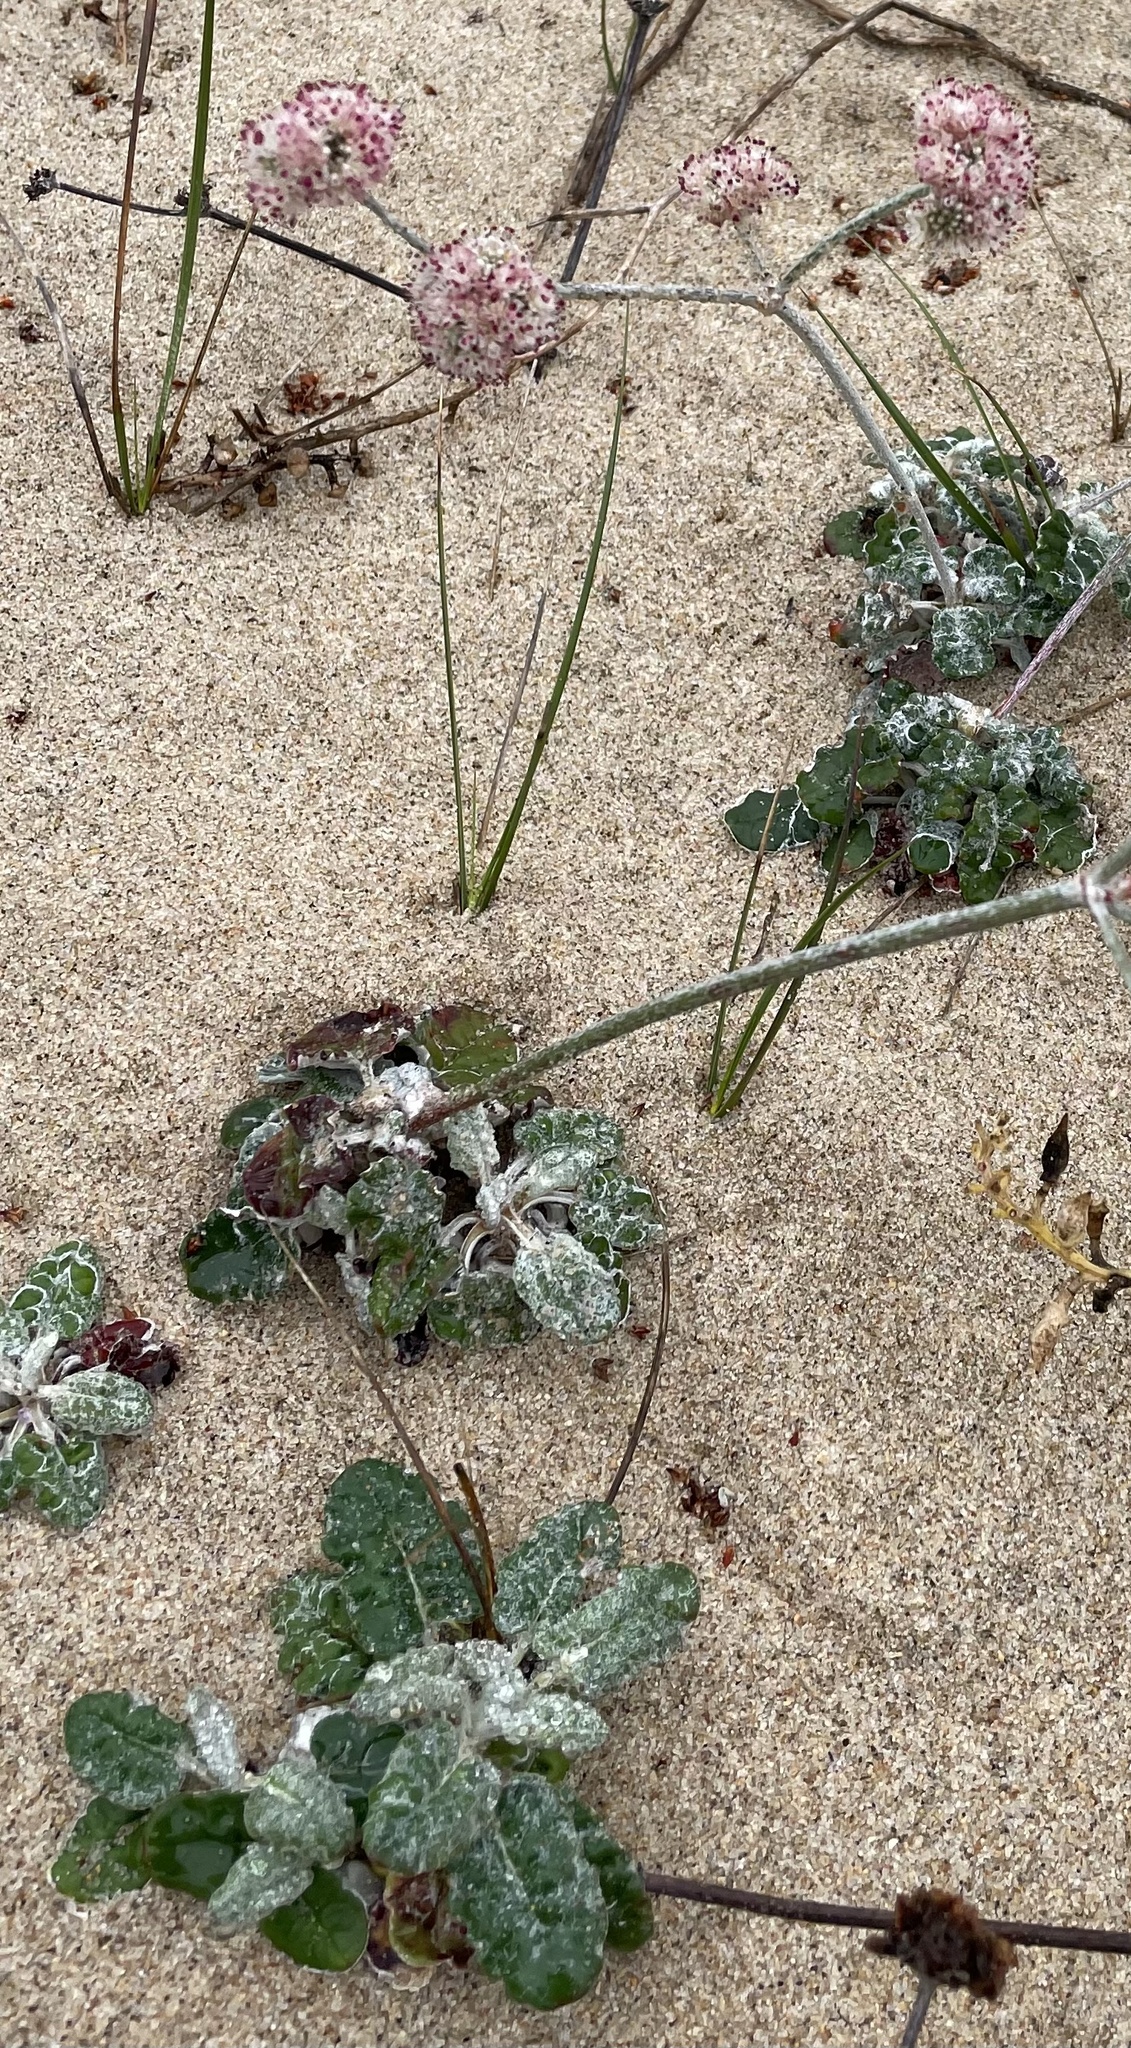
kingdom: Plantae
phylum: Tracheophyta
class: Magnoliopsida
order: Caryophyllales
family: Polygonaceae
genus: Eriogonum
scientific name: Eriogonum latifolium
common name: Seaside wild buckwheat
